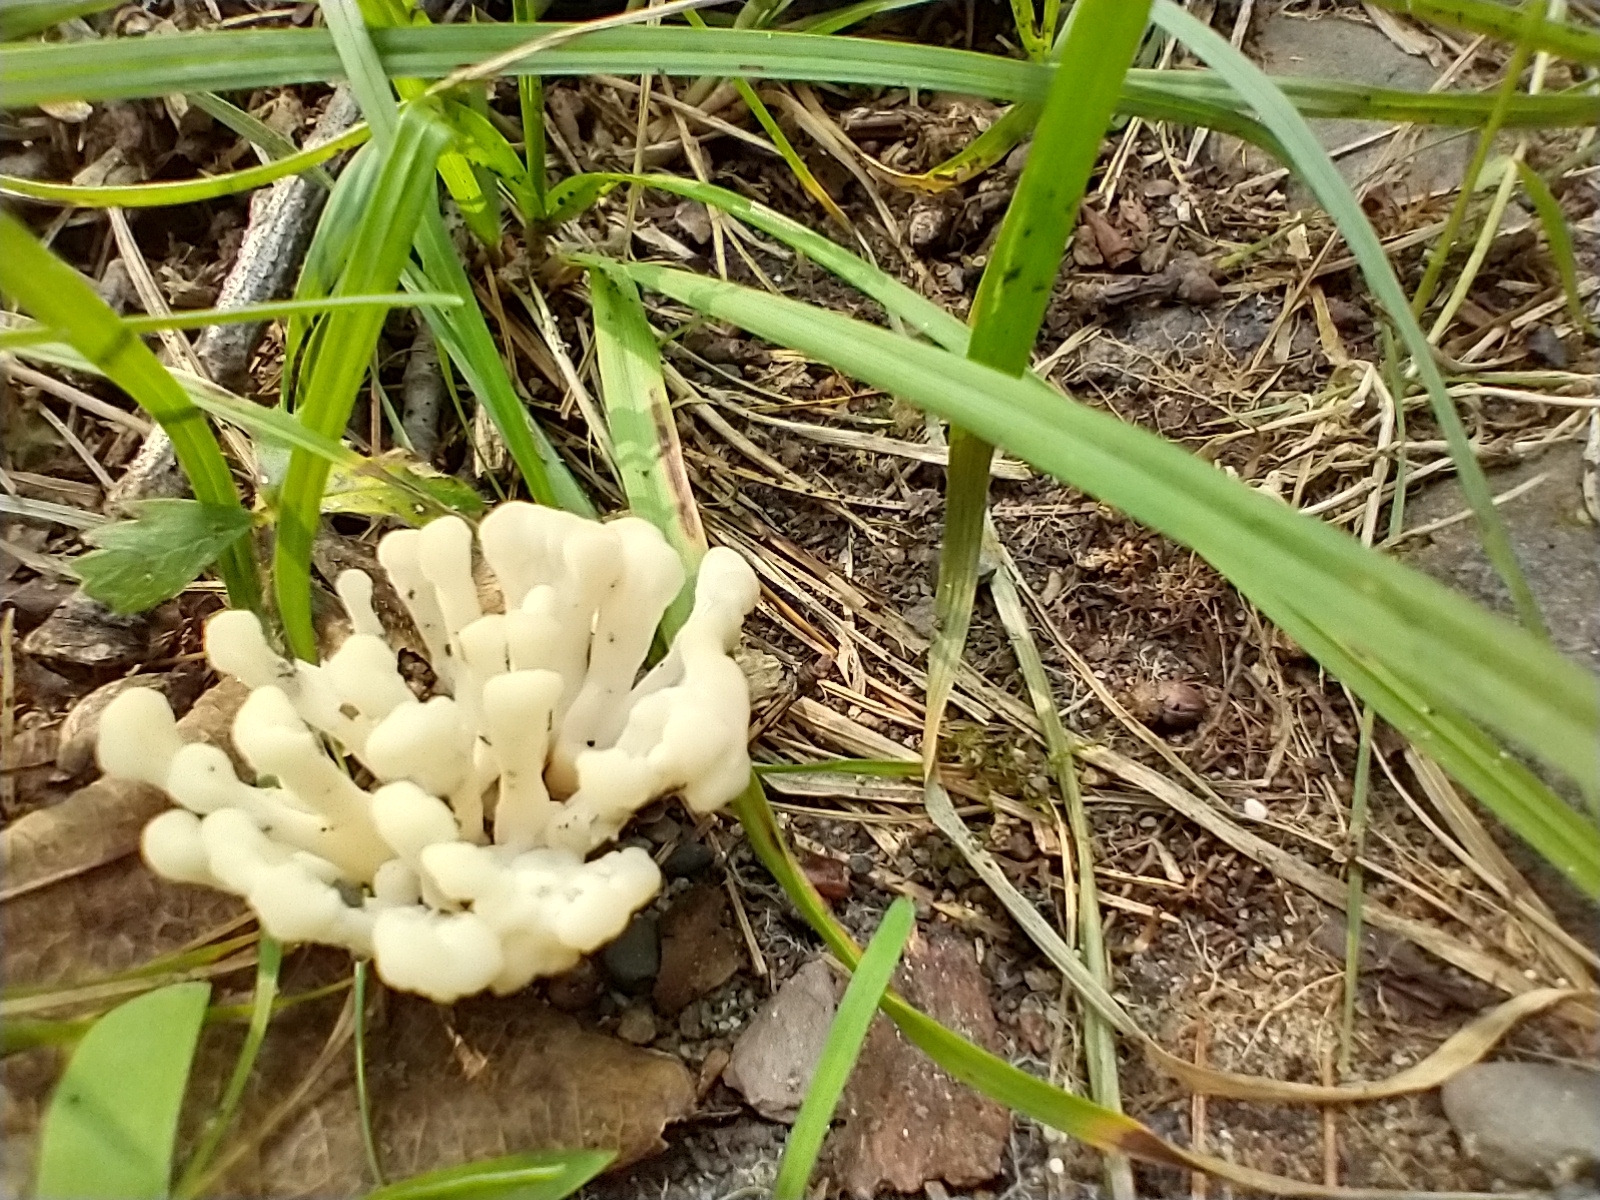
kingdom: Fungi
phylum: Basidiomycota
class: Agaricomycetes
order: Sebacinales
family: Sebacinaceae
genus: Sebacina
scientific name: Sebacina schweinitzii
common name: Jellied false coral fungus
